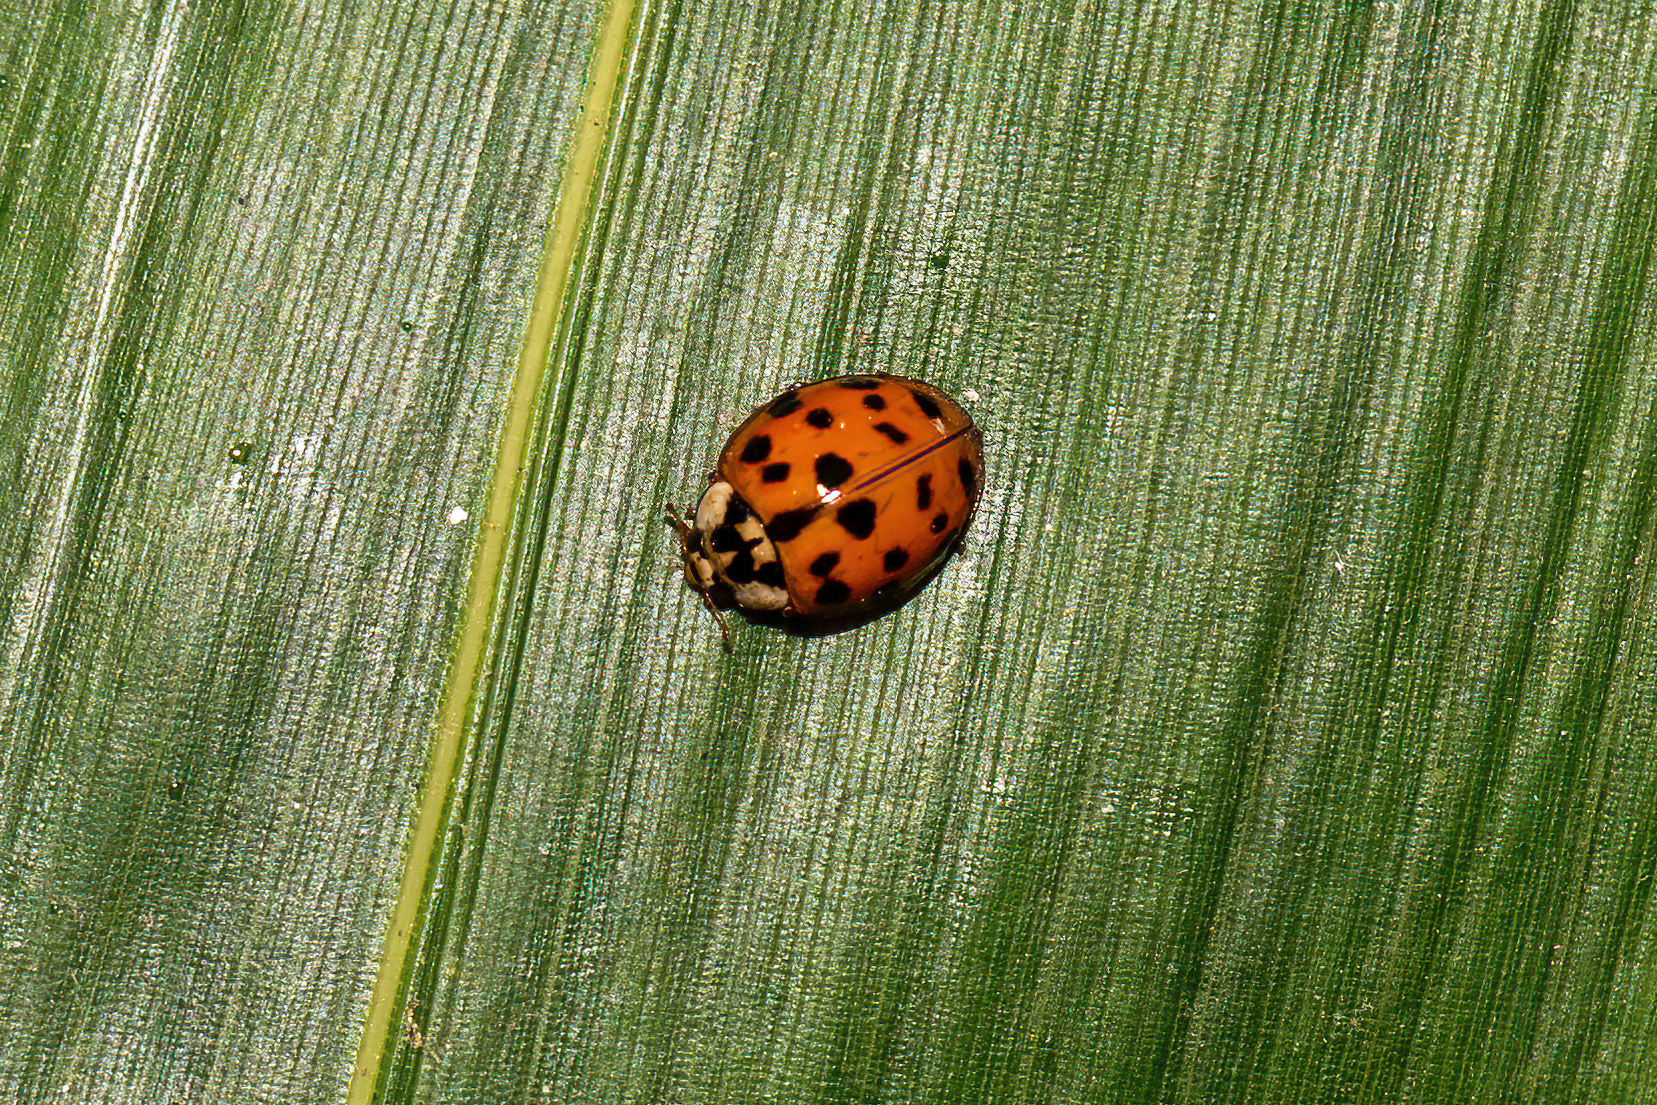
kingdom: Animalia
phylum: Arthropoda
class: Insecta
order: Coleoptera
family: Coccinellidae
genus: Harmonia
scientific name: Harmonia axyridis
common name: Harlequin ladybird
